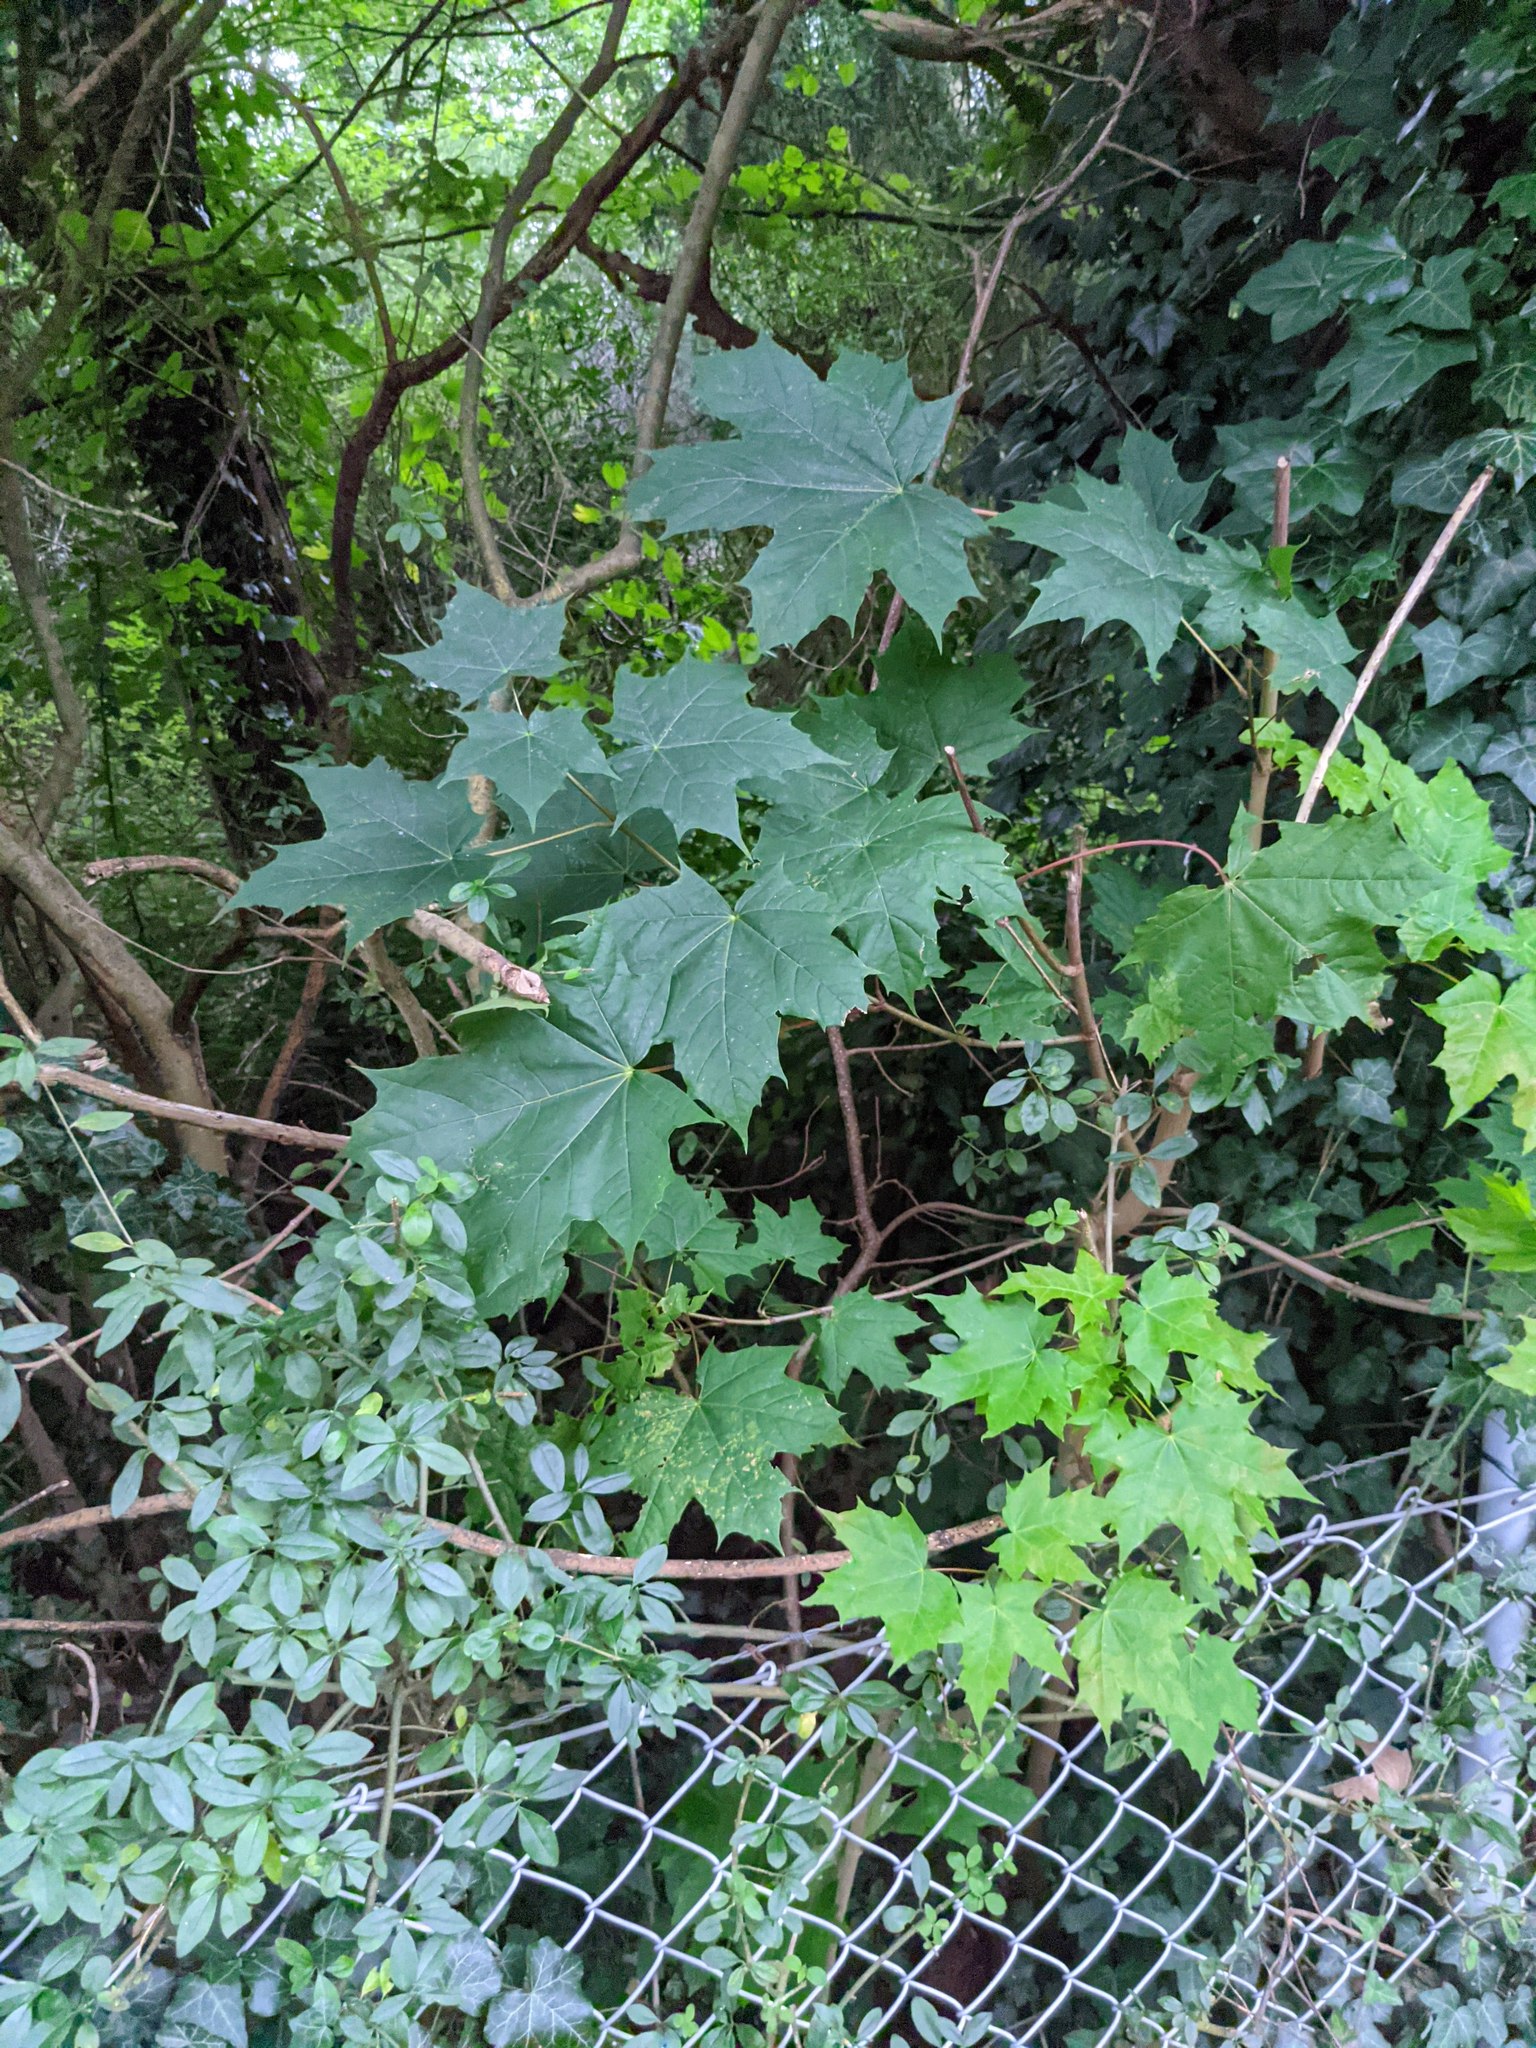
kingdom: Plantae
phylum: Tracheophyta
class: Magnoliopsida
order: Sapindales
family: Sapindaceae
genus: Acer
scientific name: Acer platanoides
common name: Norway maple
